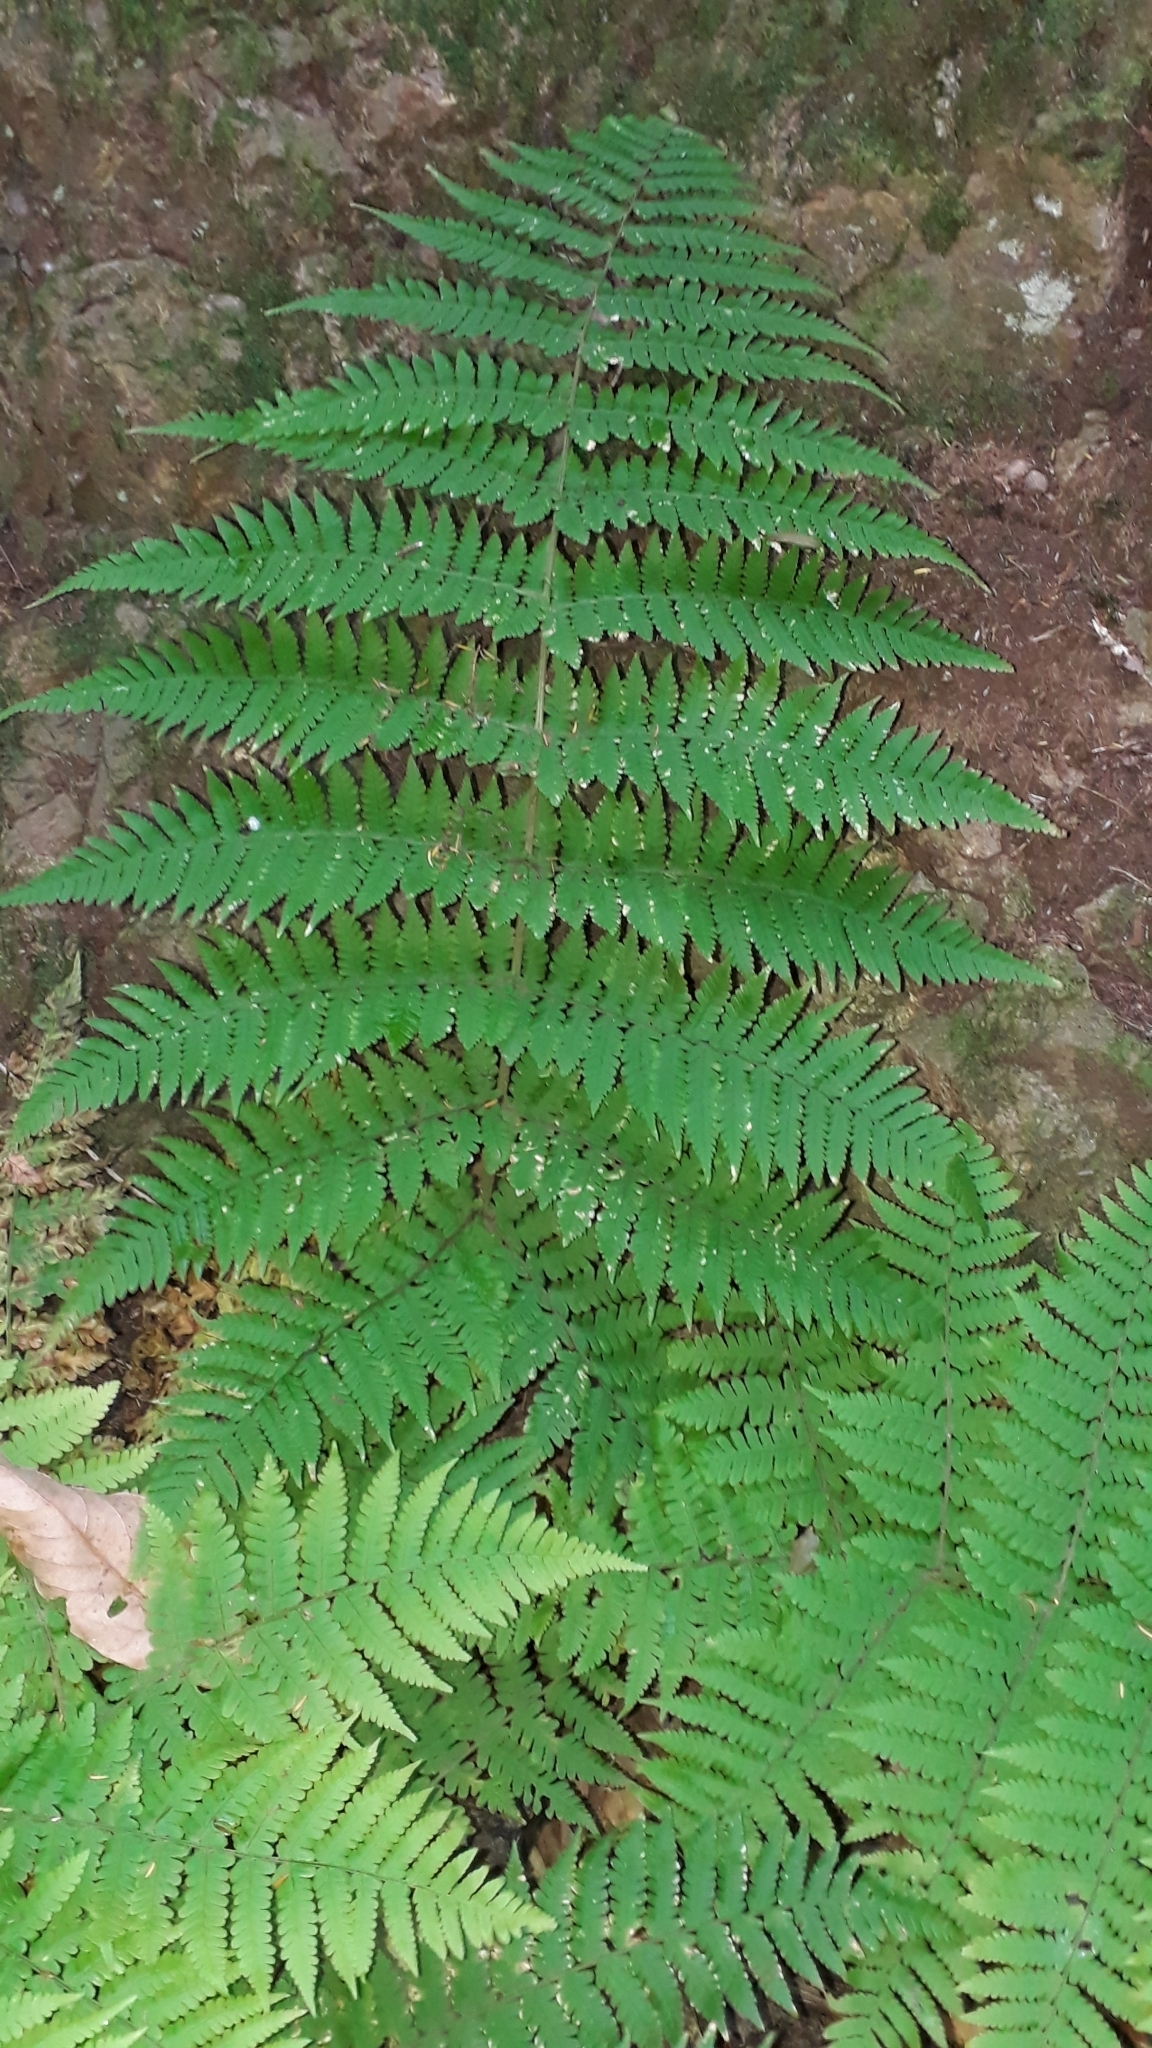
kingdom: Plantae
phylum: Tracheophyta
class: Polypodiopsida
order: Polypodiales
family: Dryopteridaceae
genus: Dryopteris
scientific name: Dryopteris oligodonta
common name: Canarian male-fern
